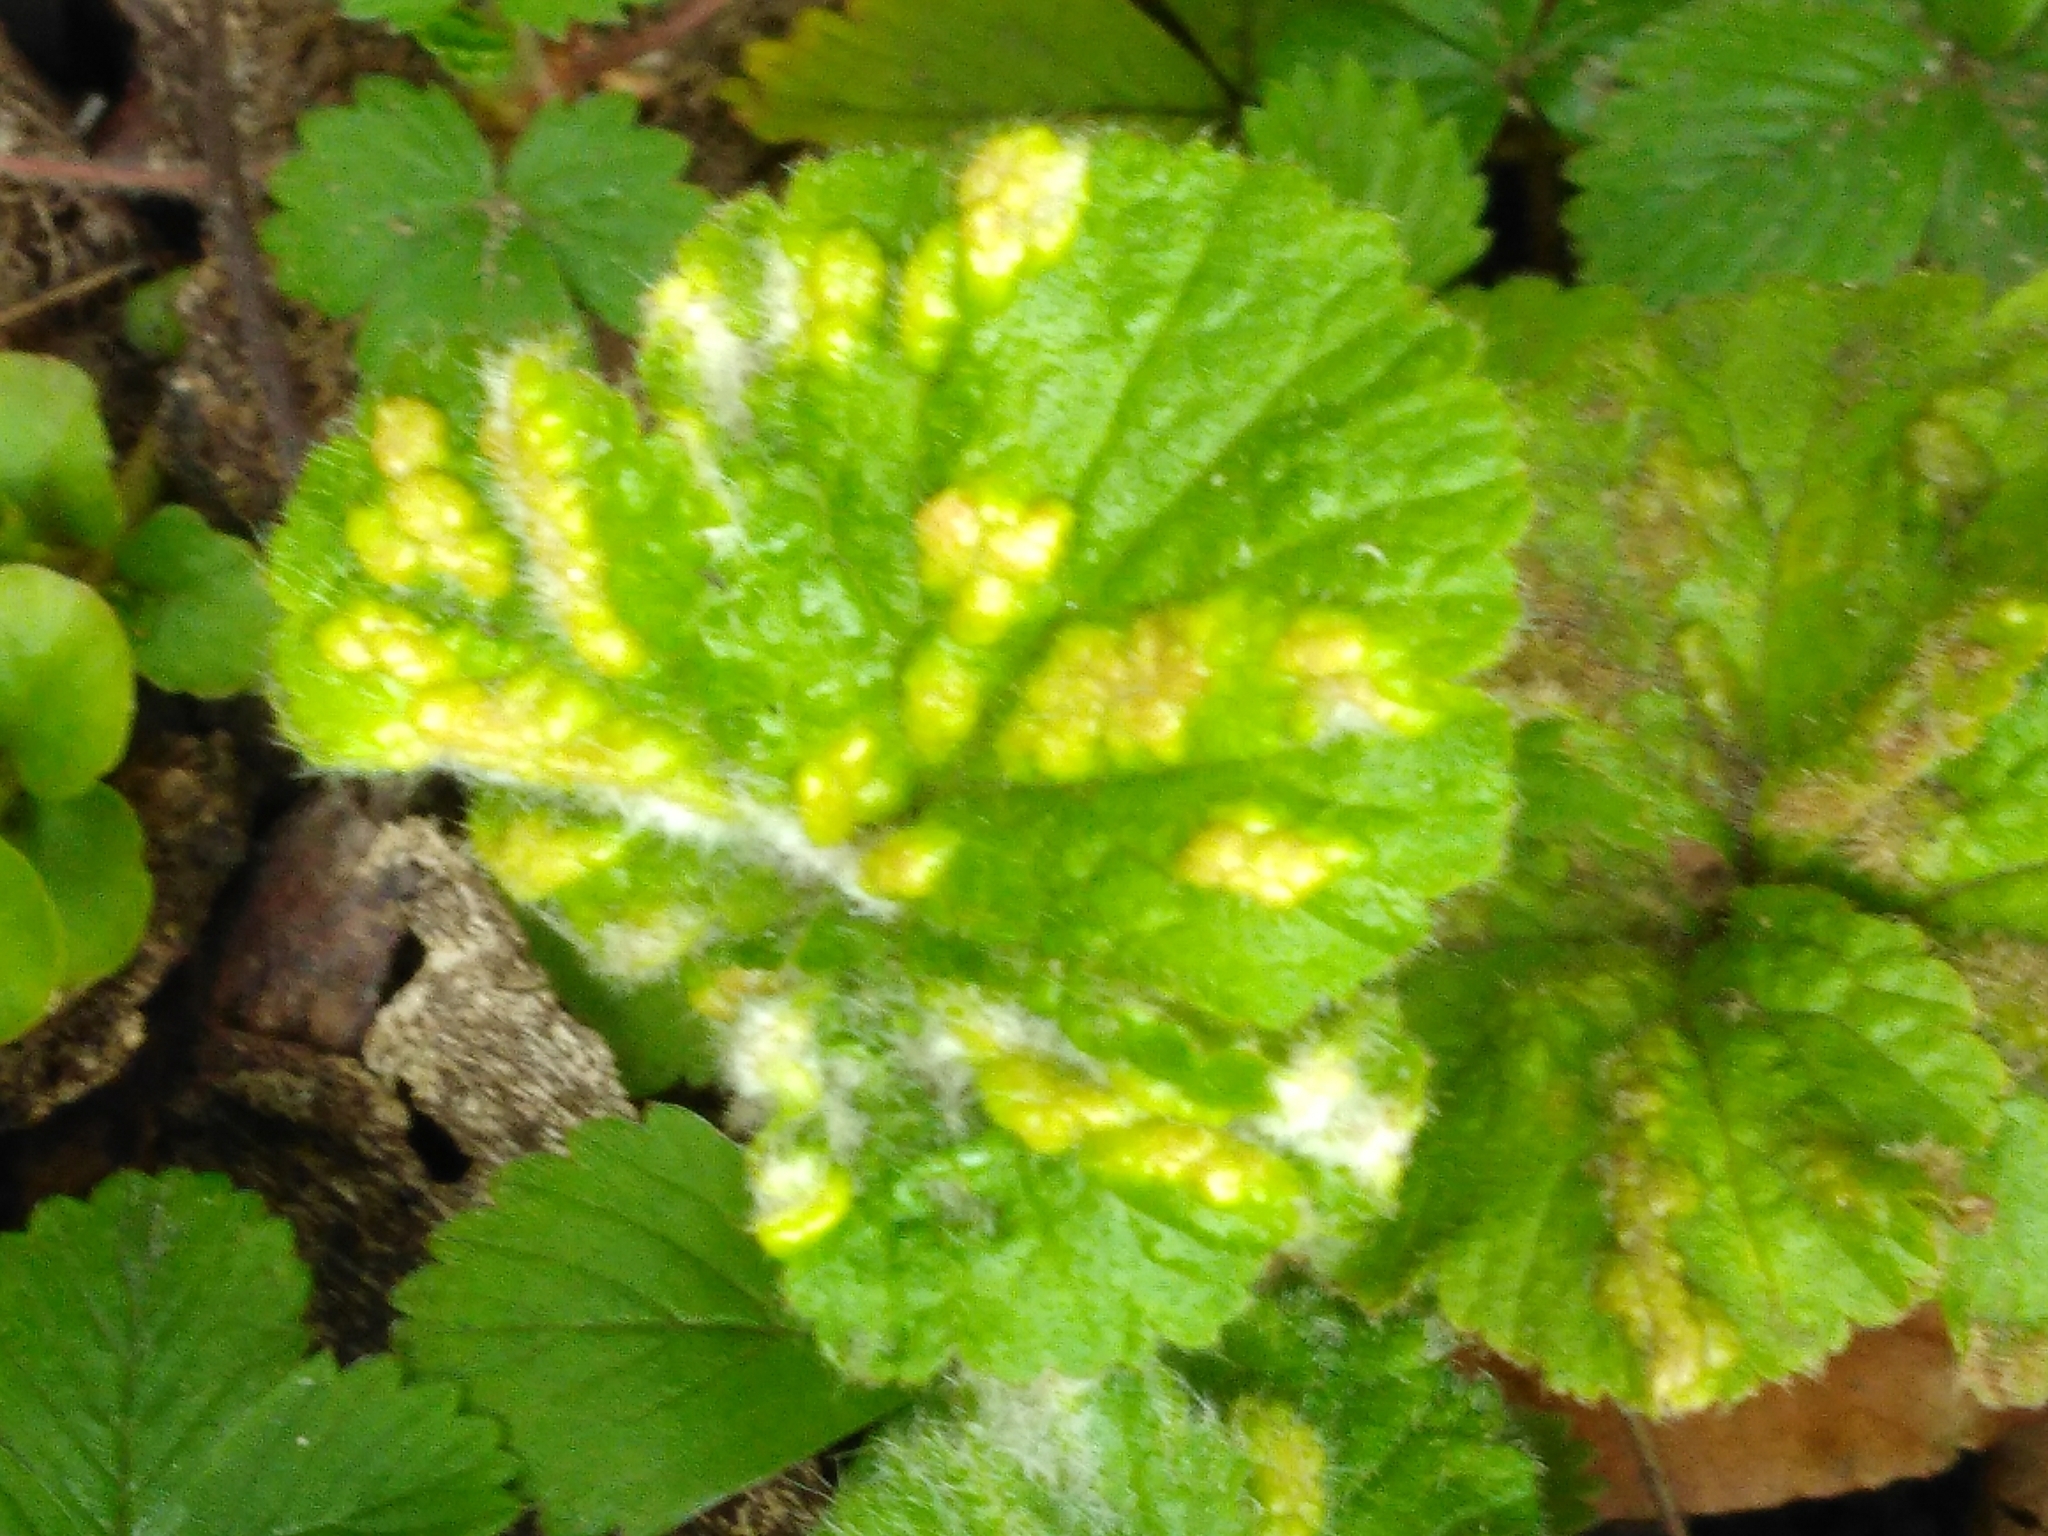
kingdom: Animalia
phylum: Arthropoda
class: Arachnida
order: Trombidiformes
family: Eriophyidae
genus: Cecidophyes
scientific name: Cecidophyes nudus
